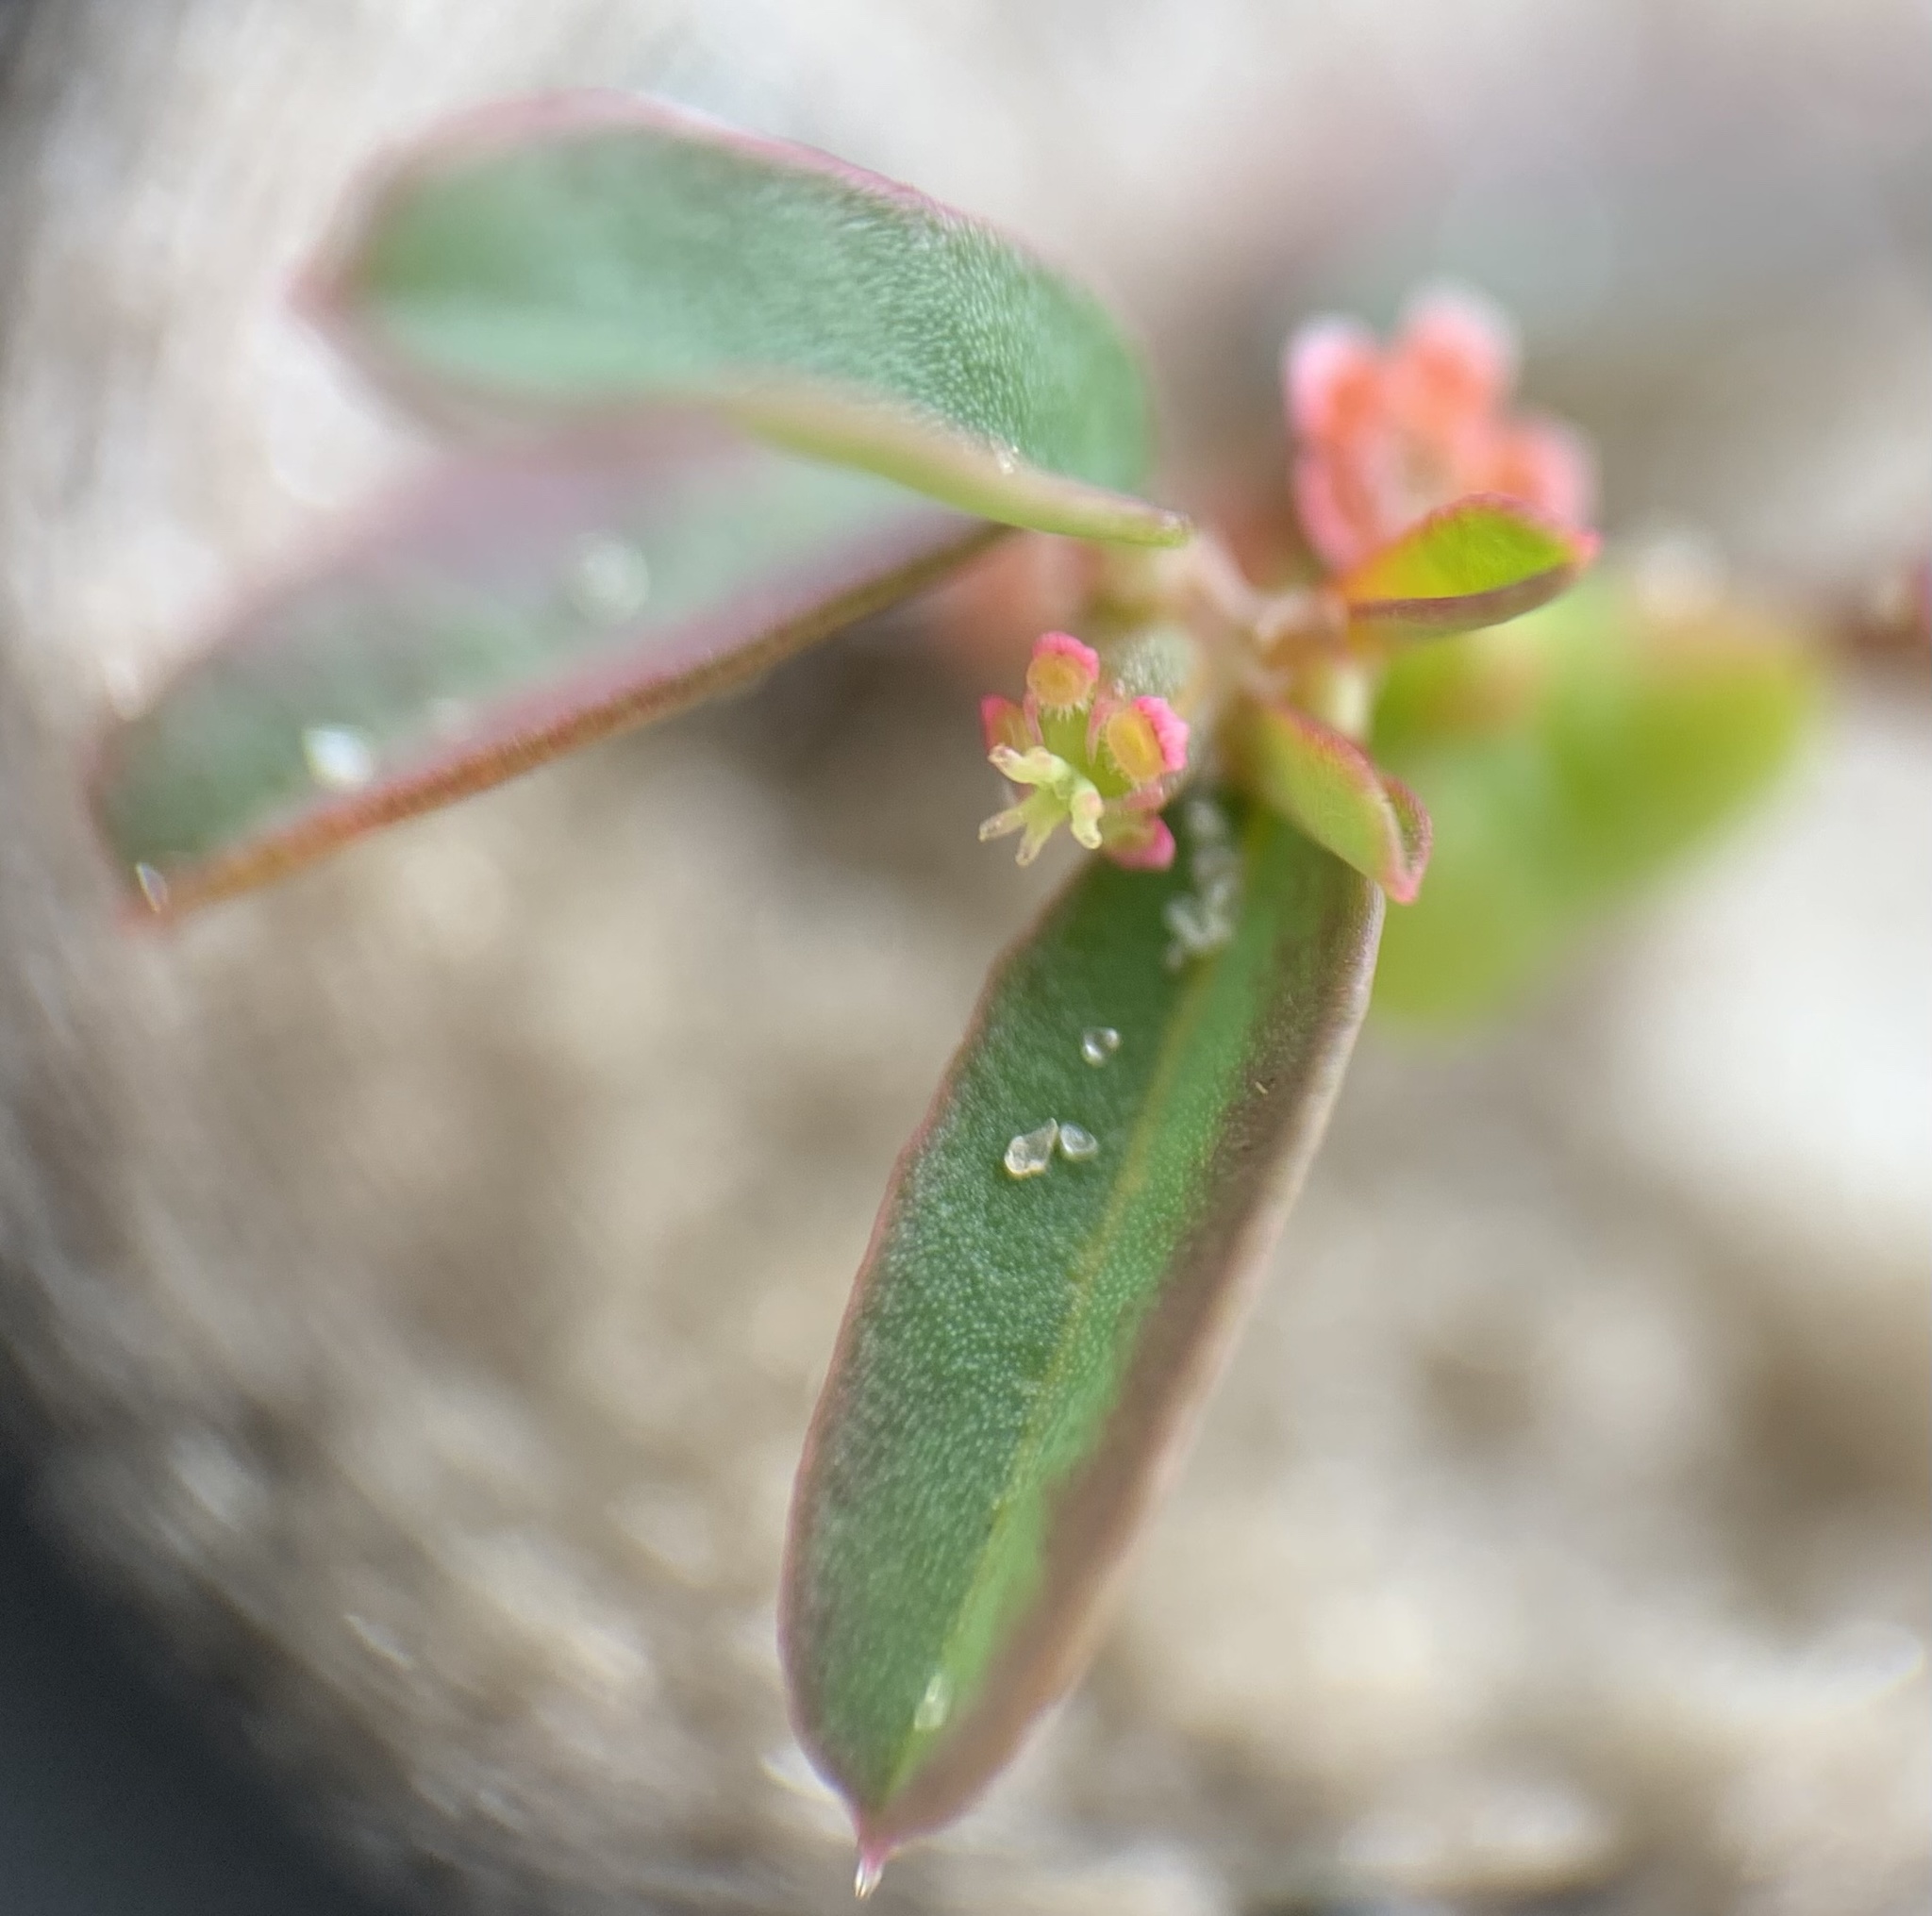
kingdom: Plantae
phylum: Tracheophyta
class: Magnoliopsida
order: Malpighiales
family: Euphorbiaceae
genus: Euphorbia
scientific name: Euphorbia cumulicola
